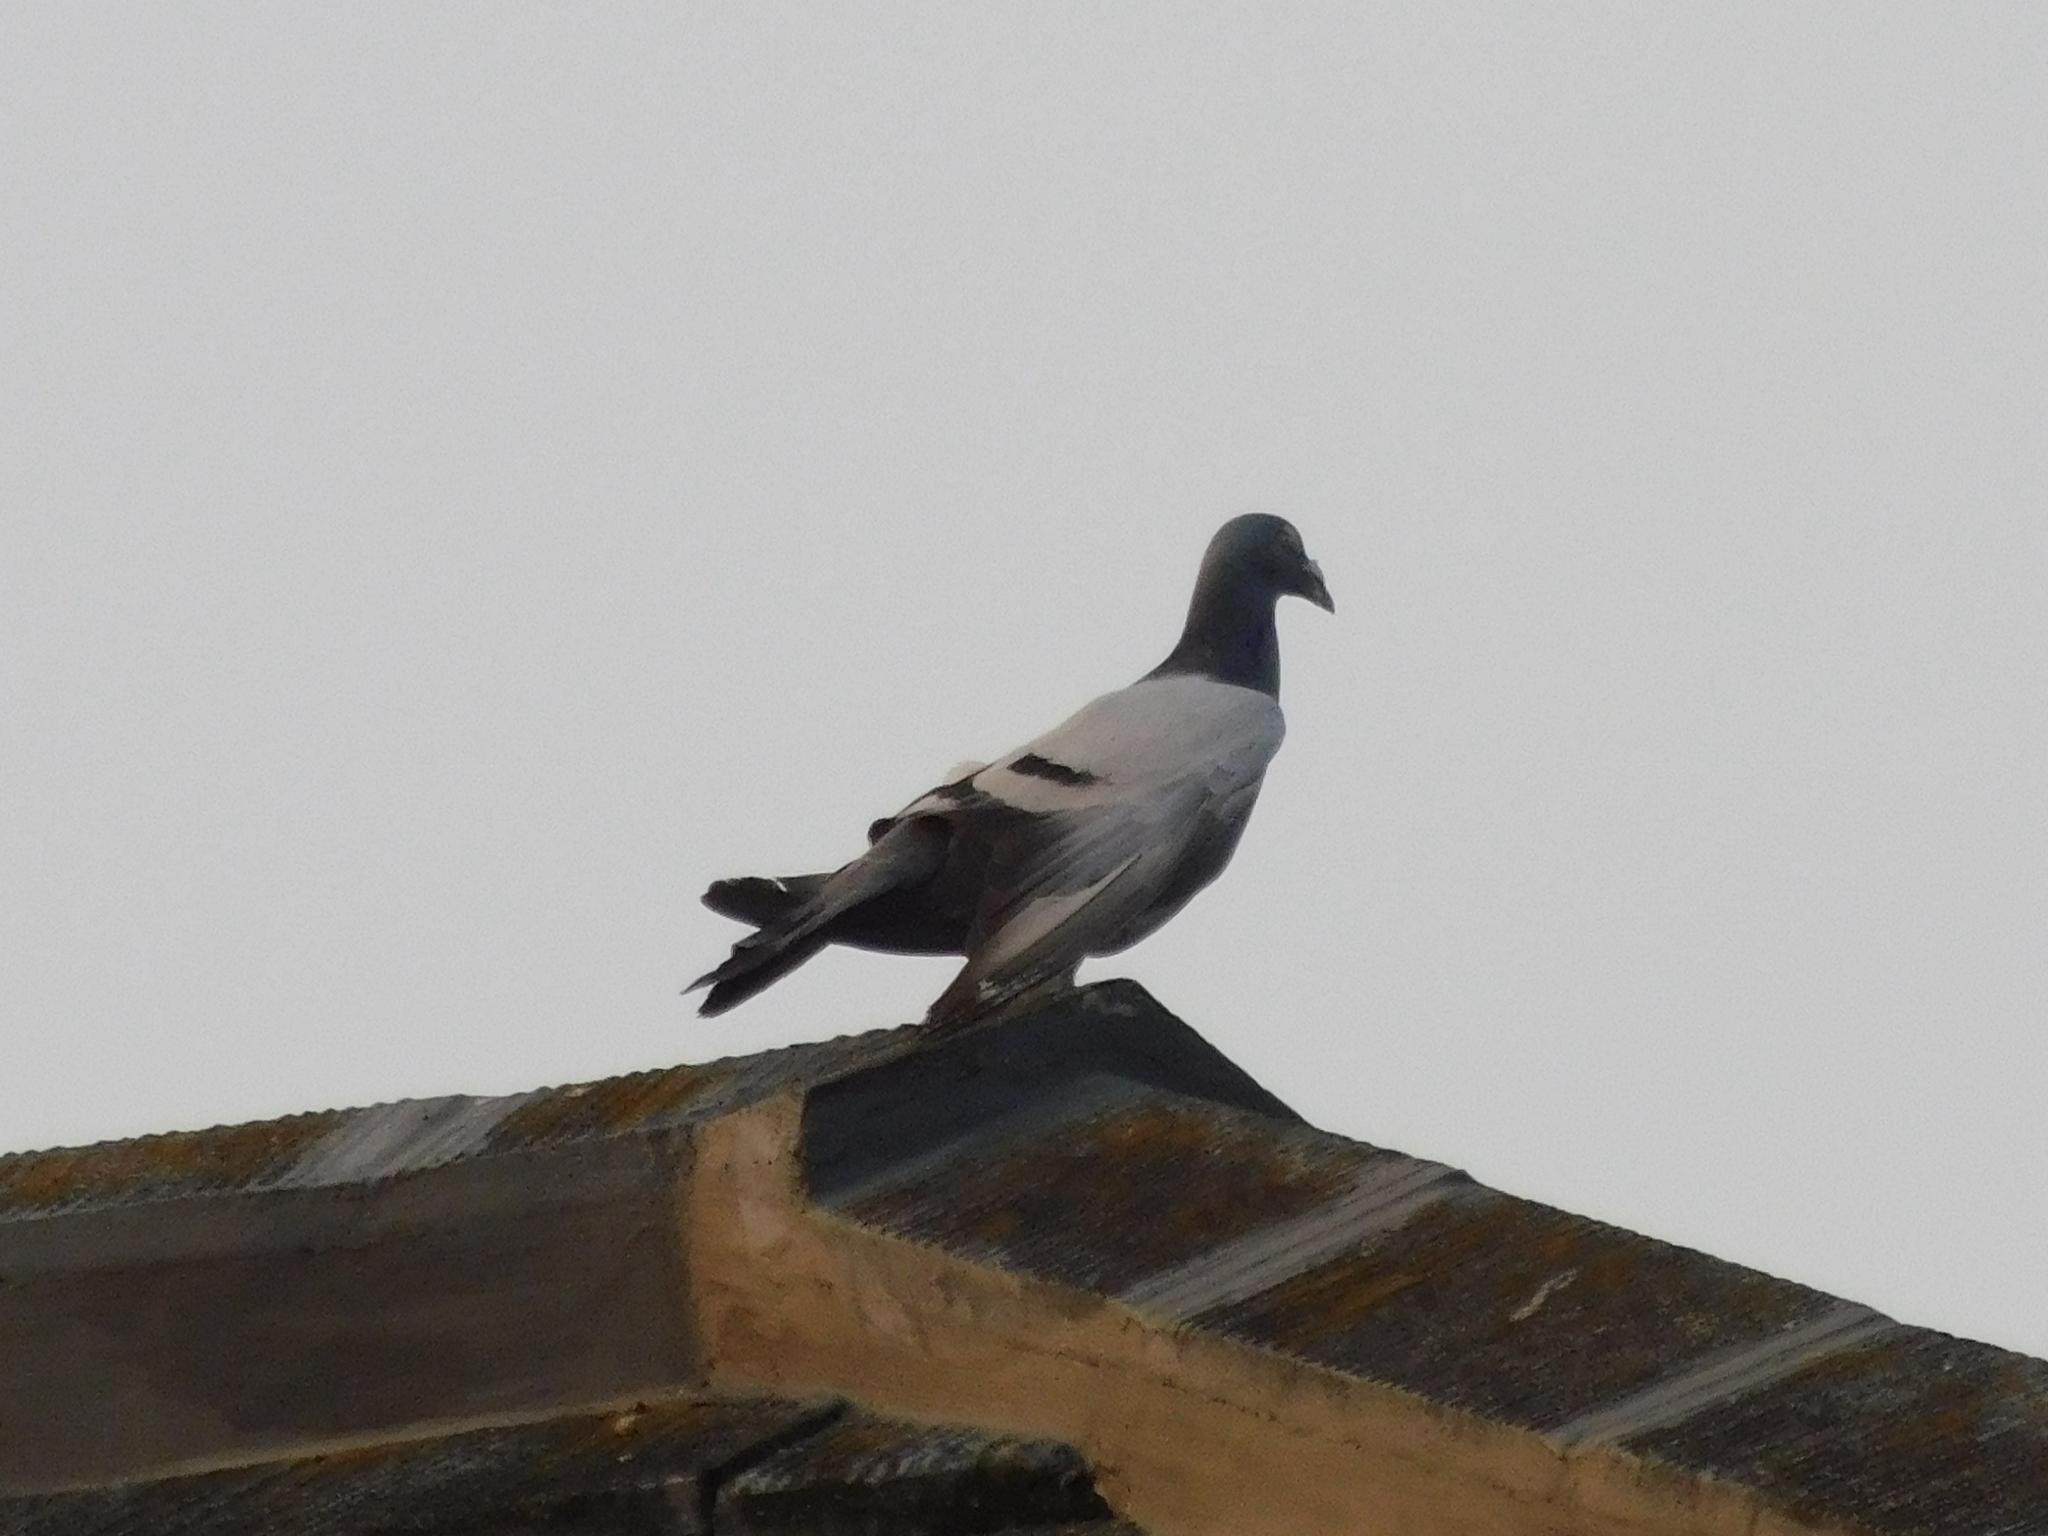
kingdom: Animalia
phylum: Chordata
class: Aves
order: Columbiformes
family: Columbidae
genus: Columba
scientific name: Columba livia
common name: Rock pigeon
